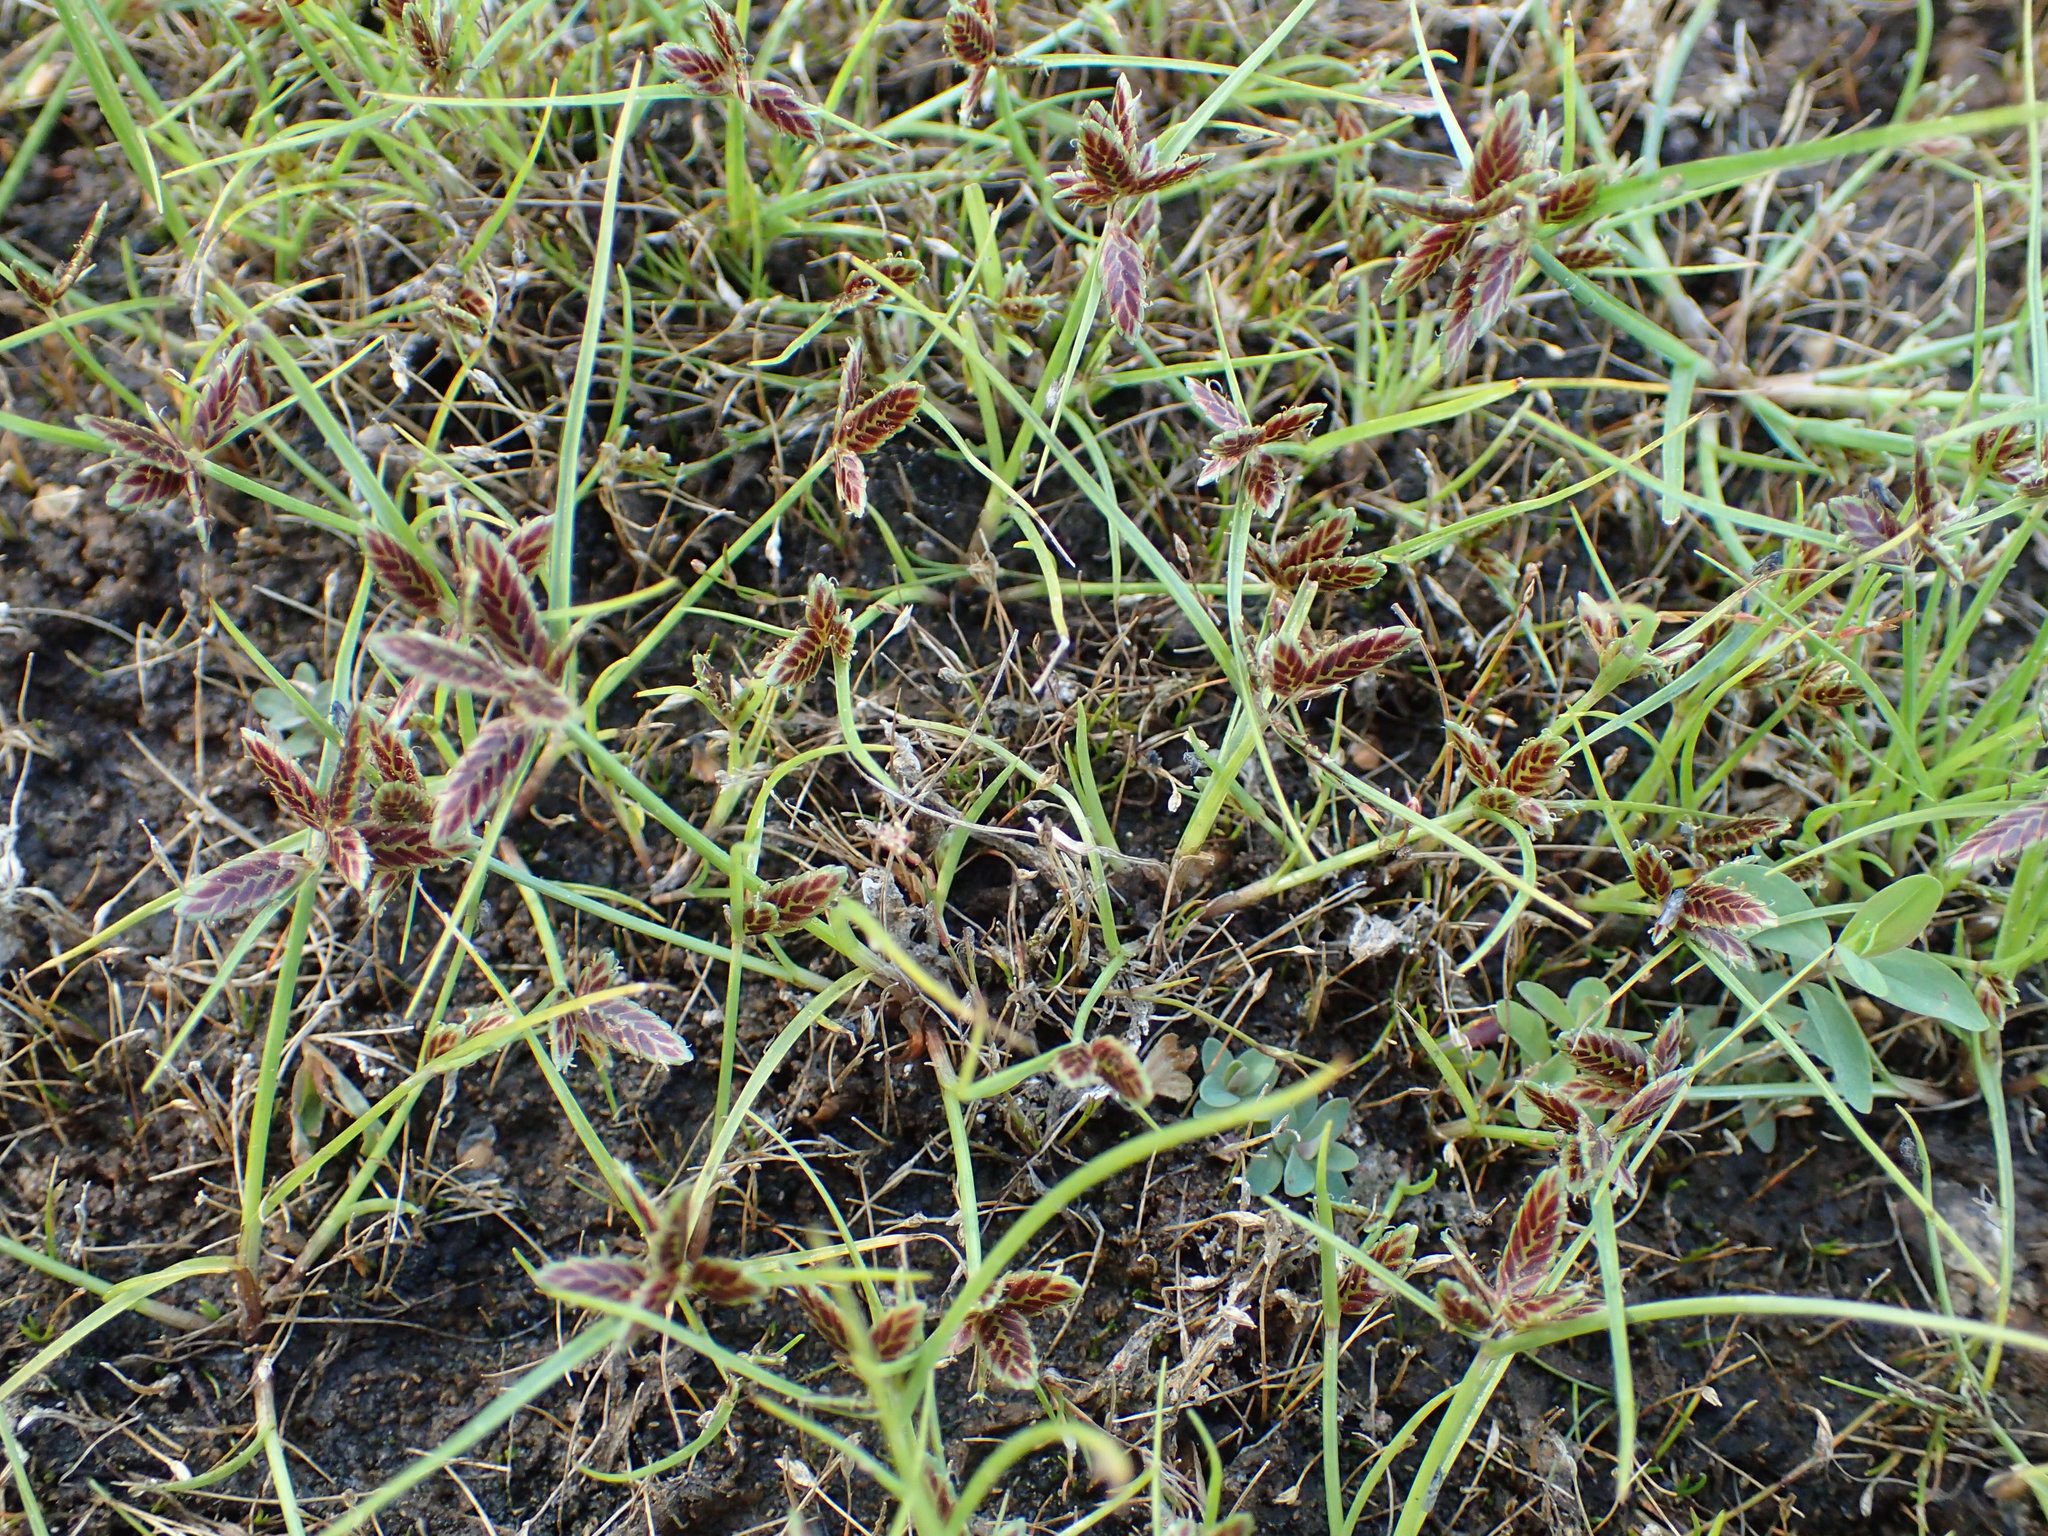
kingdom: Plantae
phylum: Tracheophyta
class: Liliopsida
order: Poales
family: Cyperaceae
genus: Cyperus
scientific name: Cyperus bipartitus
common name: Brook flatsedge
